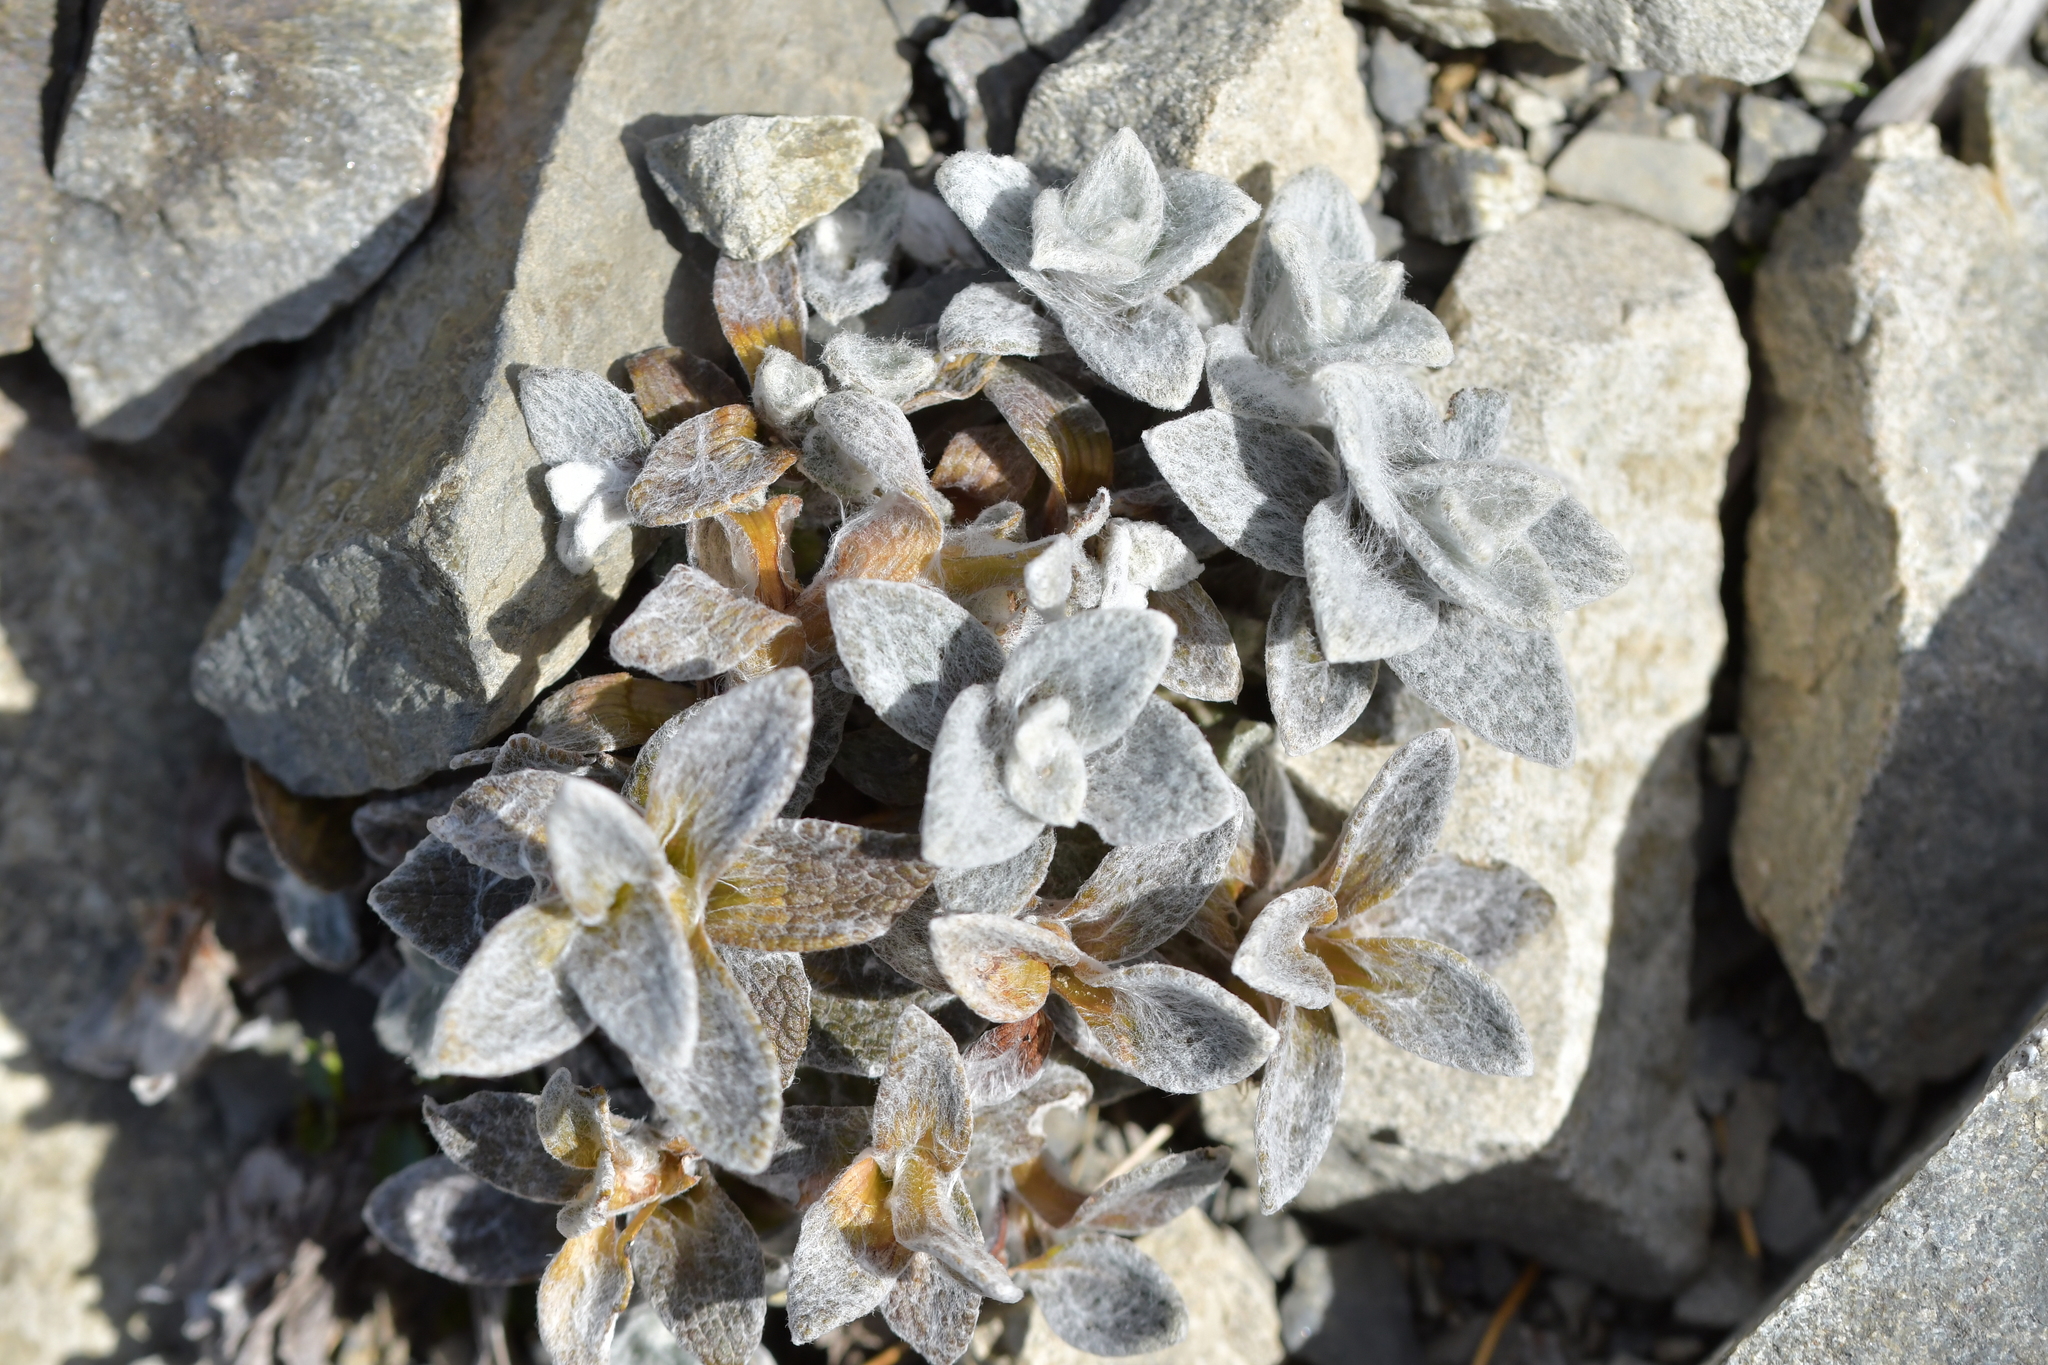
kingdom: Plantae
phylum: Tracheophyta
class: Magnoliopsida
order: Asterales
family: Asteraceae
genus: Haastia
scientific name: Haastia sinclairii
